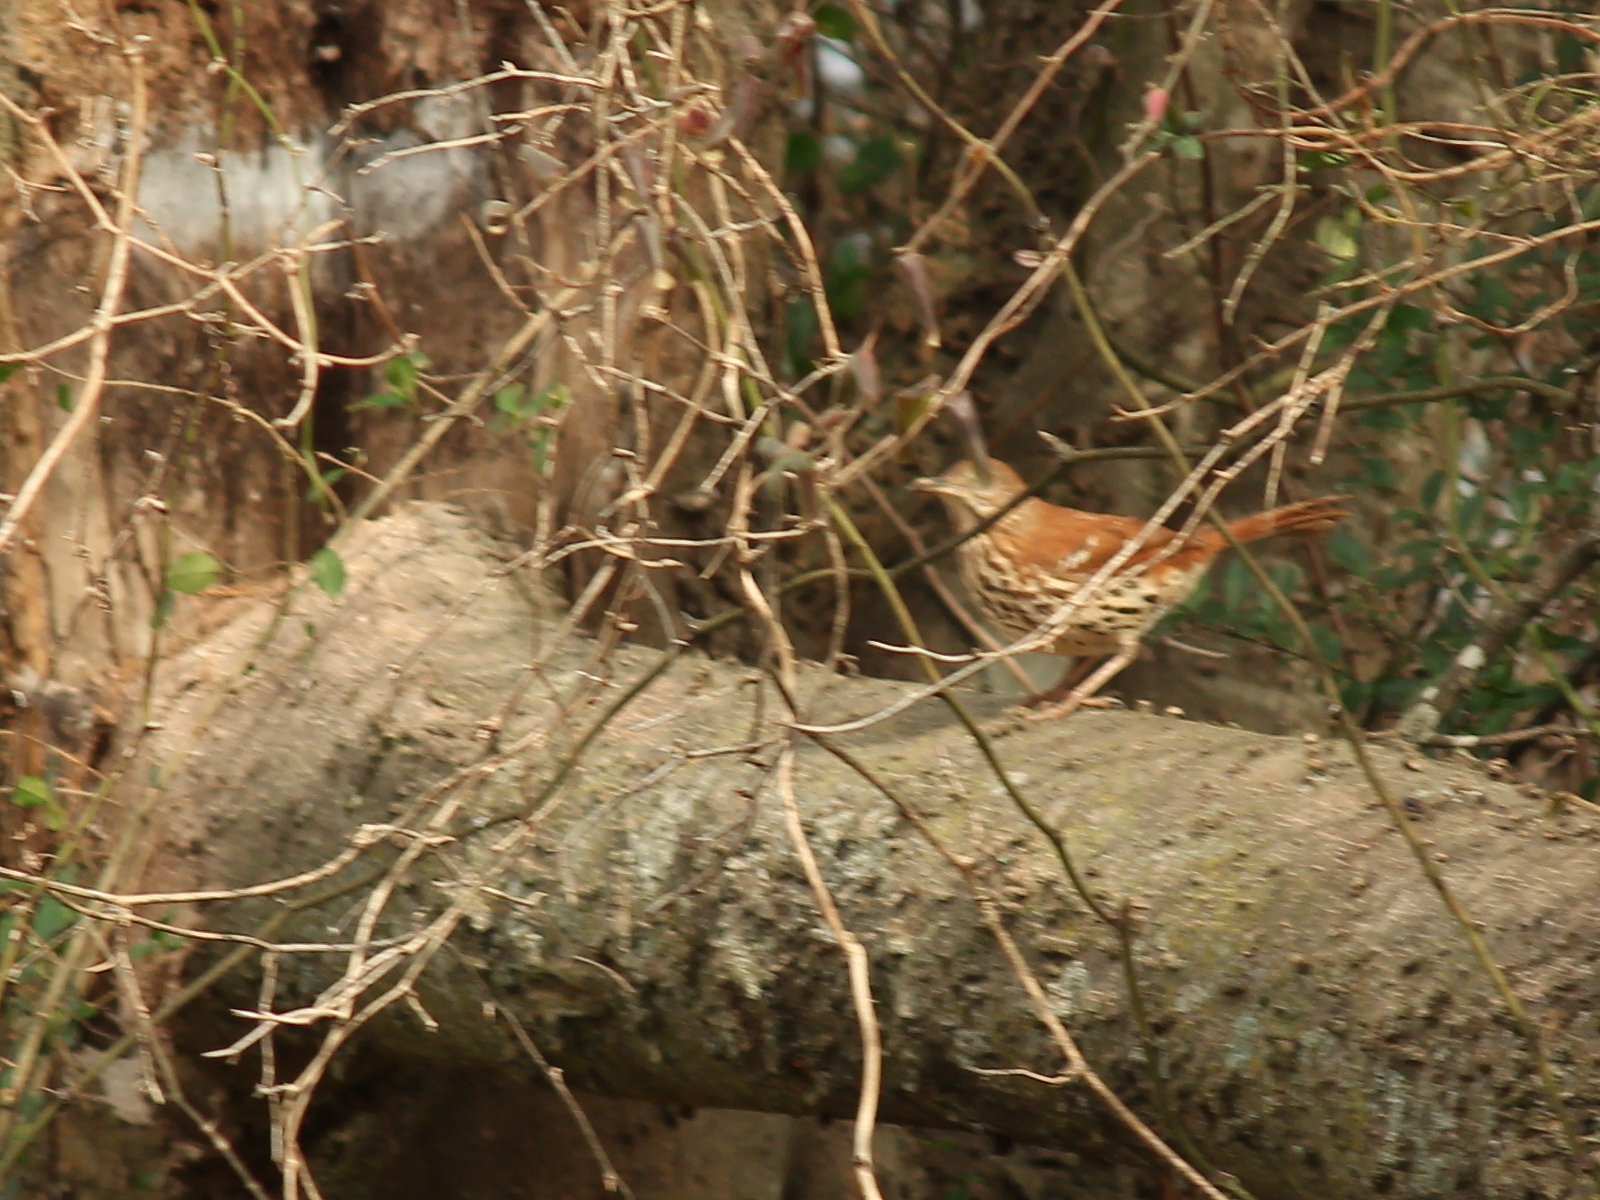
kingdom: Animalia
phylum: Chordata
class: Aves
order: Passeriformes
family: Mimidae
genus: Toxostoma
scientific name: Toxostoma rufum
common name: Brown thrasher
